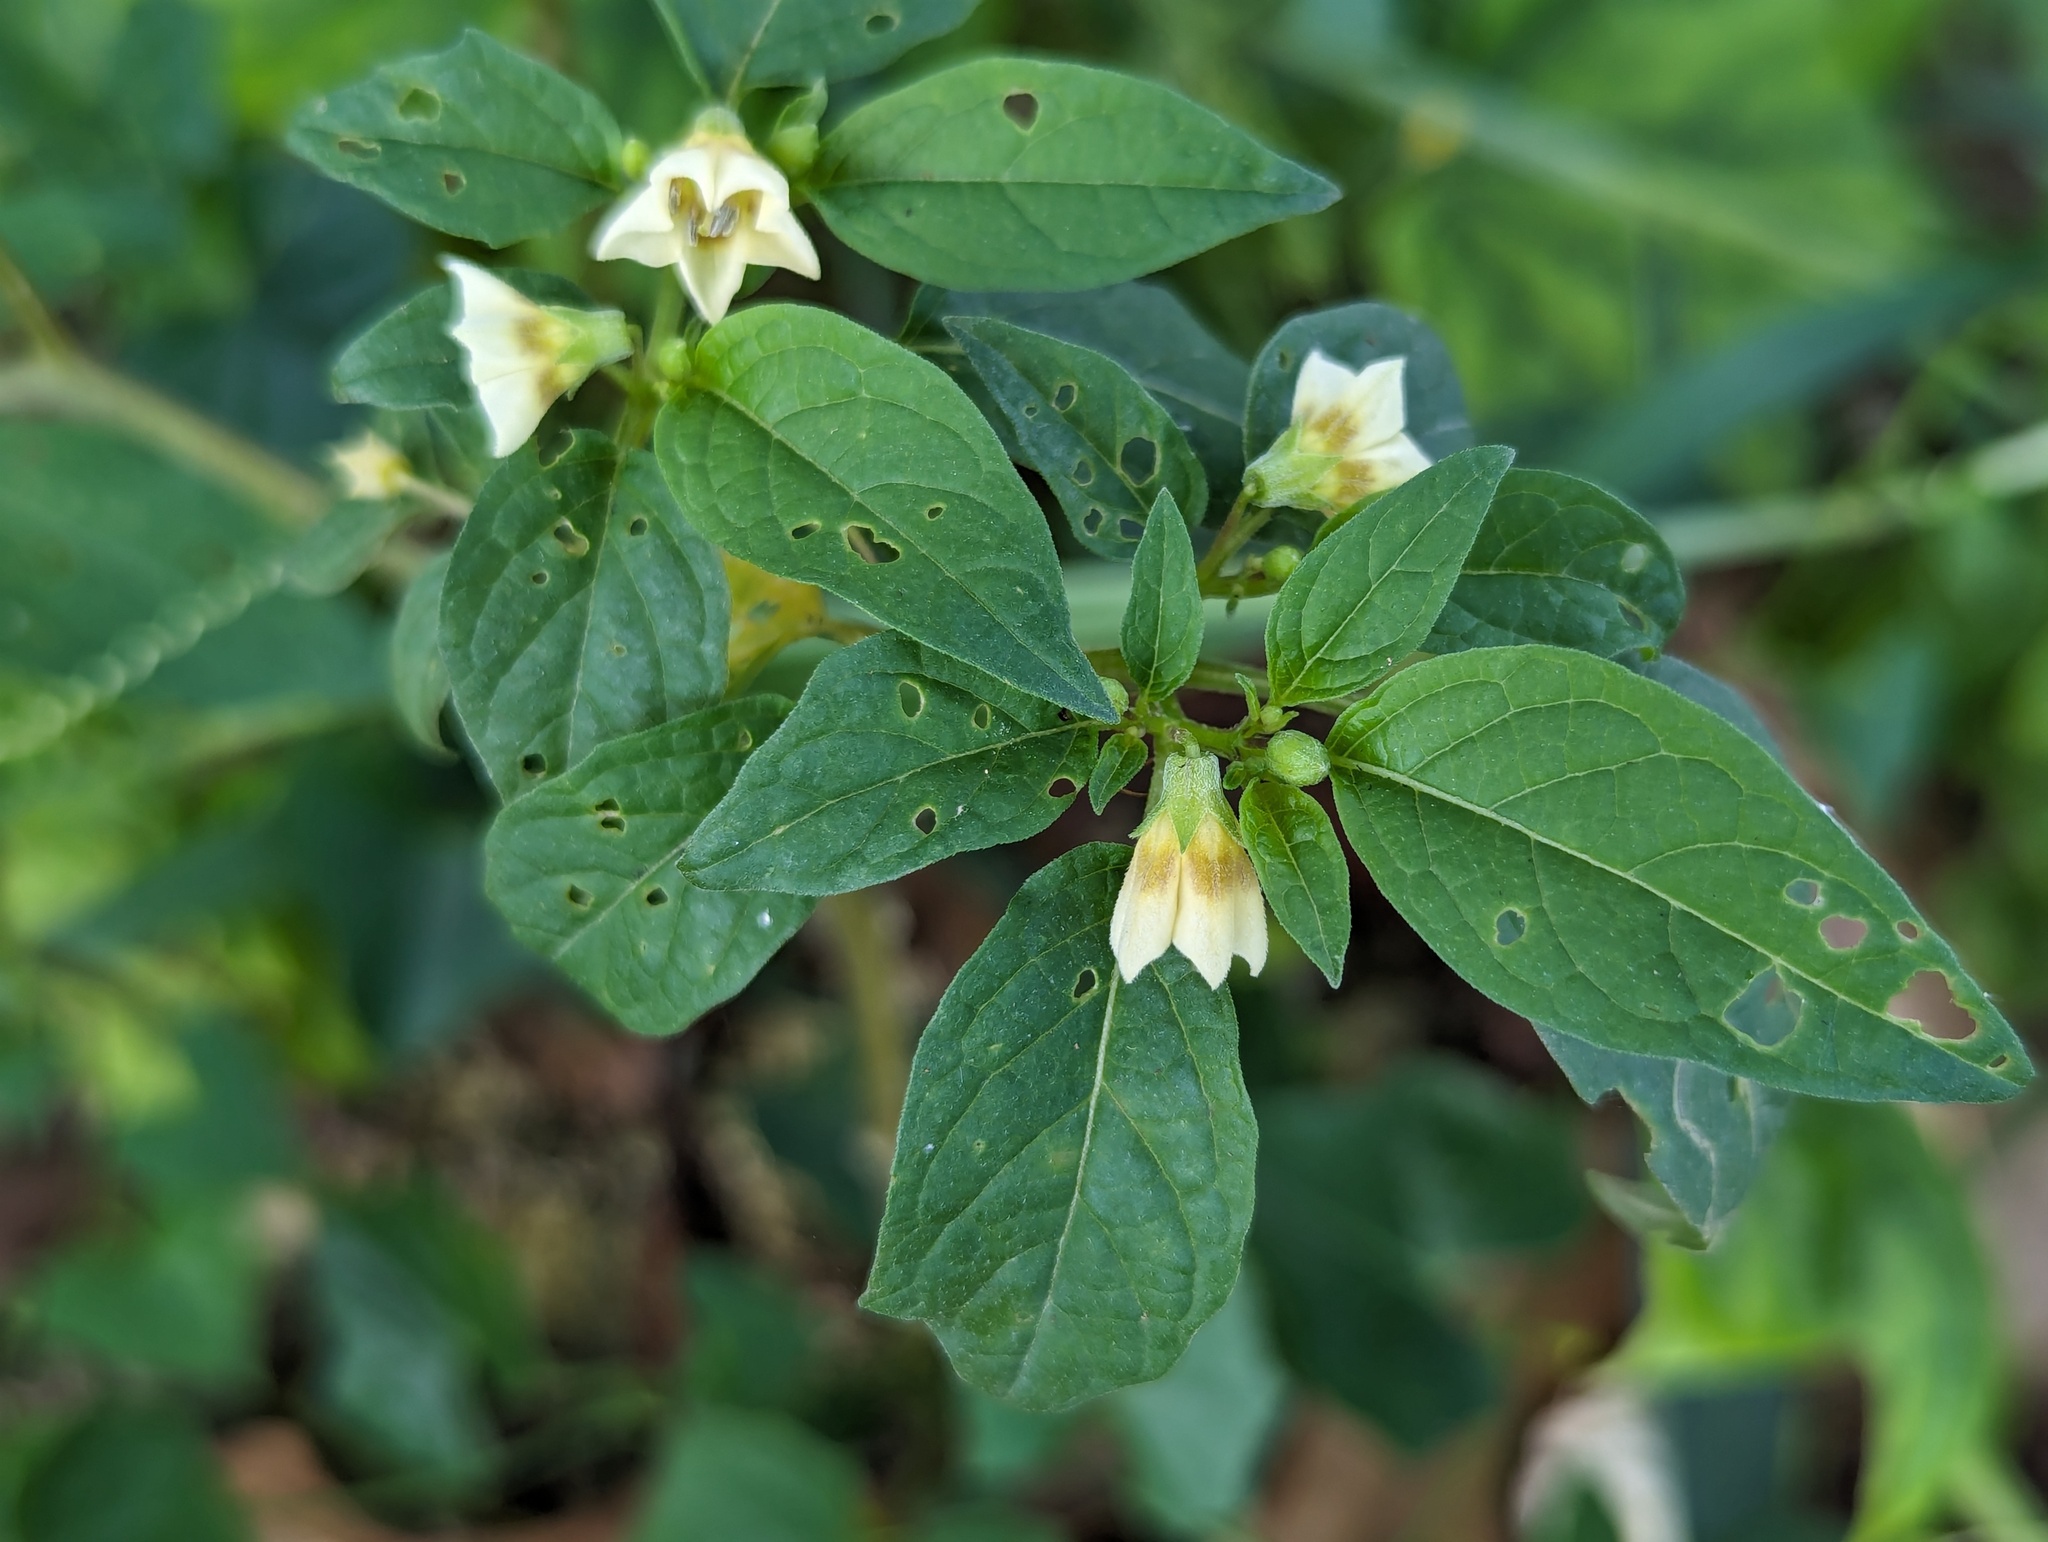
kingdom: Plantae
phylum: Tracheophyta
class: Magnoliopsida
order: Solanales
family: Solanaceae
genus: Physalis
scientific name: Physalis angulata
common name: Angular winter-cherry
